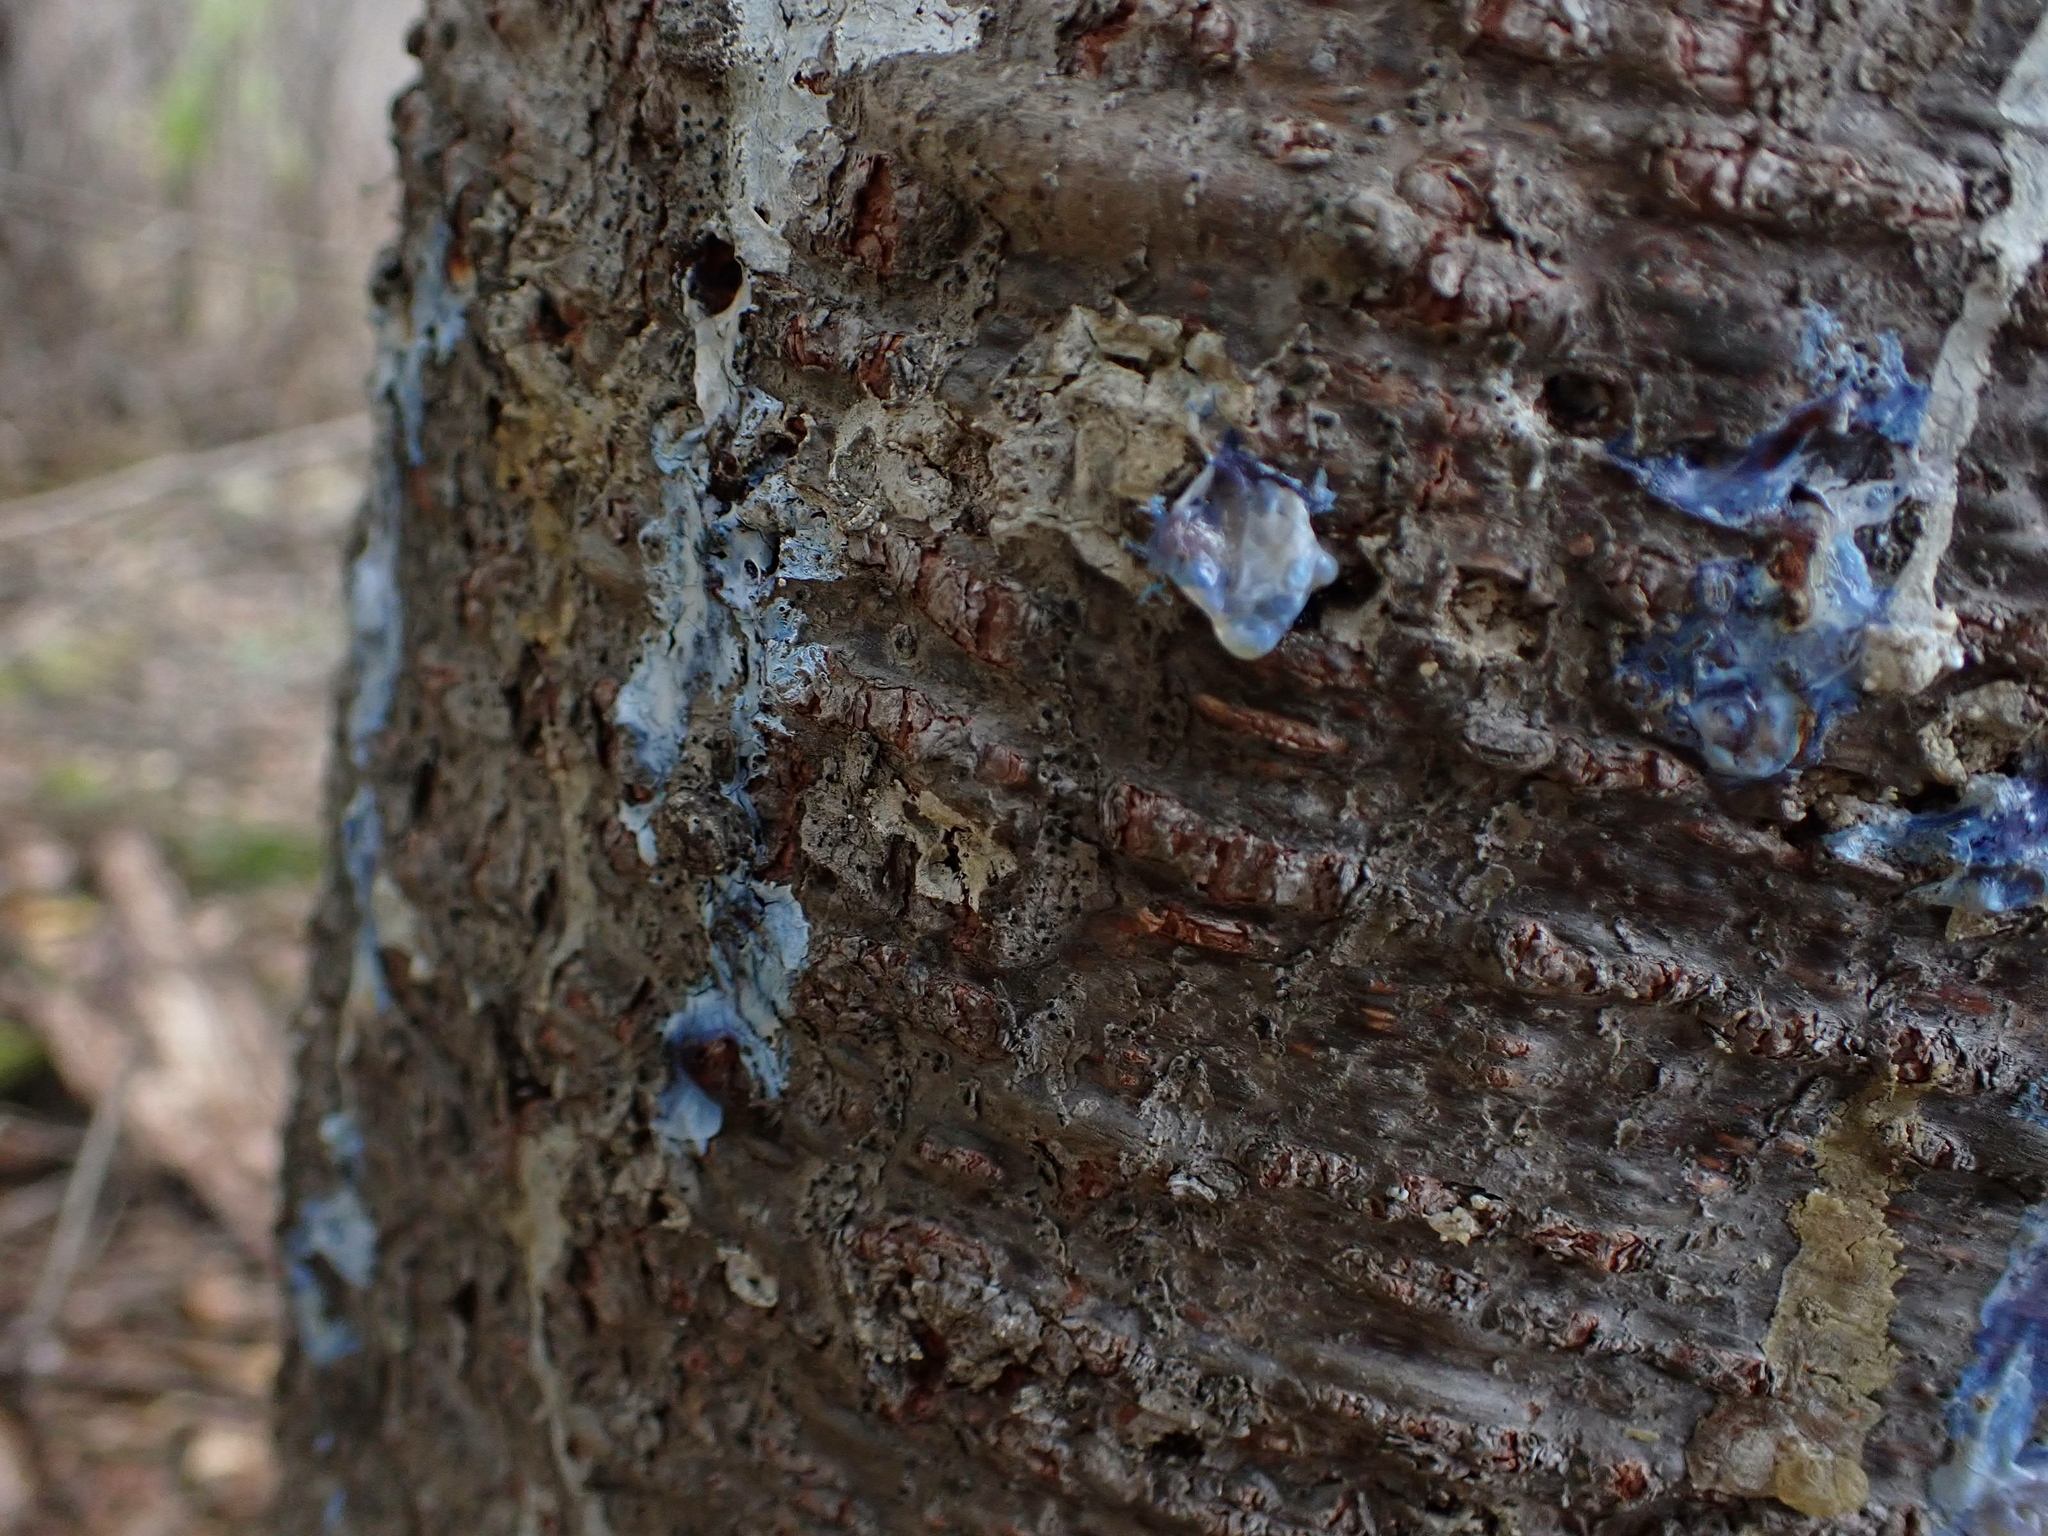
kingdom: Plantae
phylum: Tracheophyta
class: Pinopsida
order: Pinales
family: Pinaceae
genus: Abies
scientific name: Abies balsamea
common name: Balsam fir
